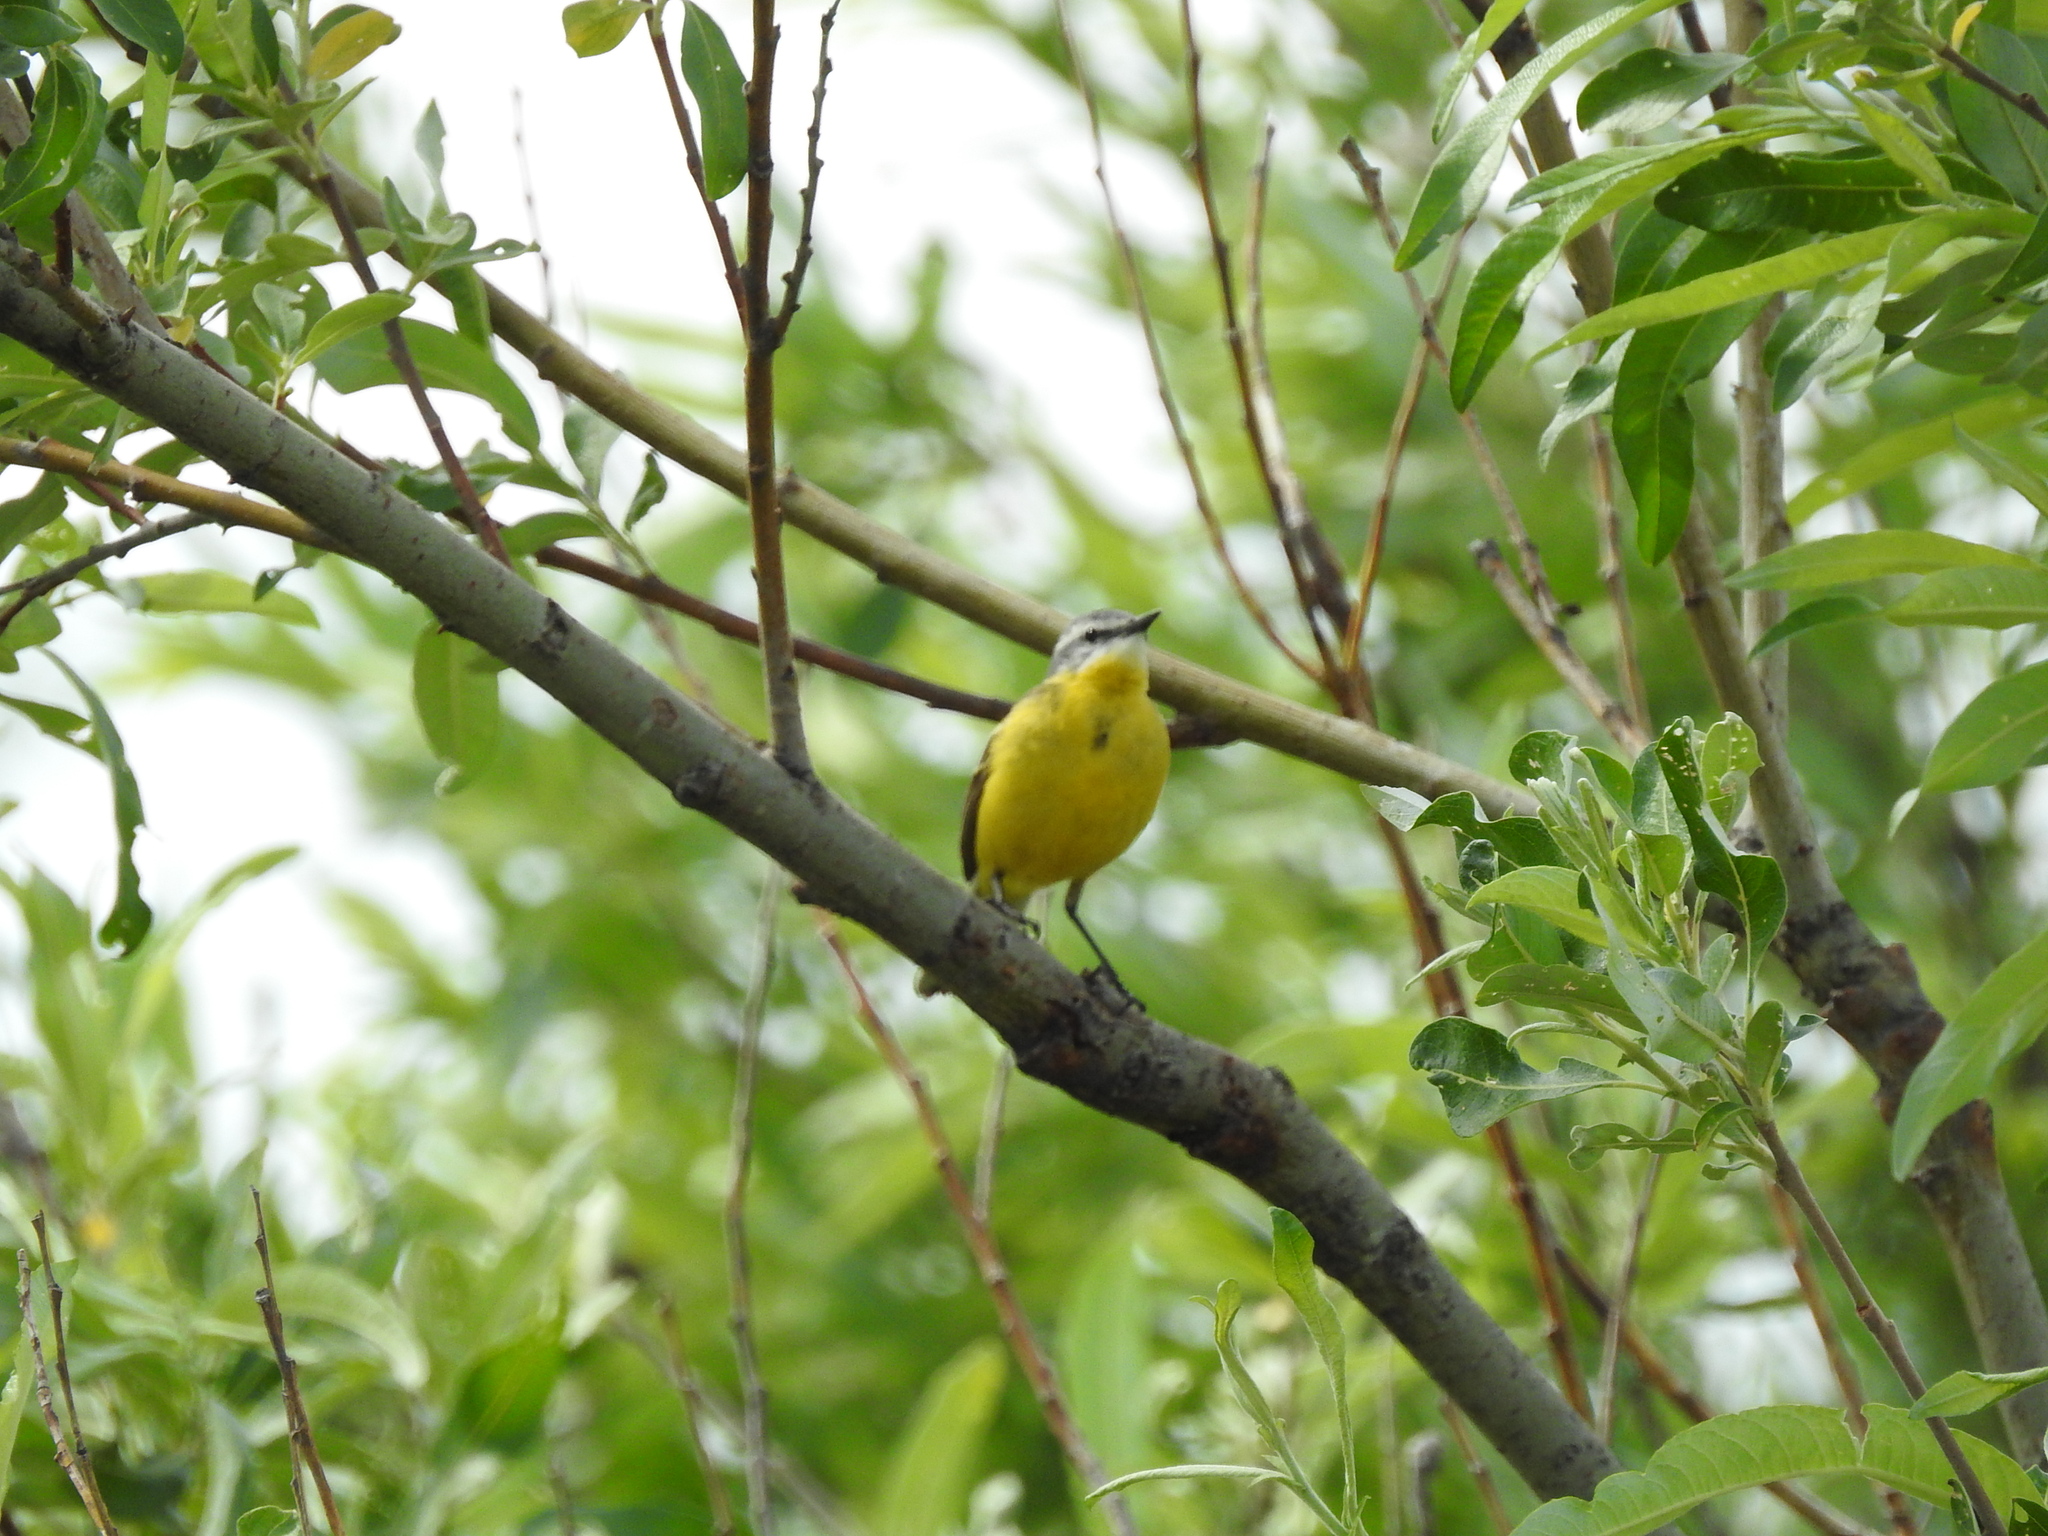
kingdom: Animalia
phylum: Chordata
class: Aves
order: Passeriformes
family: Motacillidae
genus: Motacilla
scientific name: Motacilla flava
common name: Western yellow wagtail
